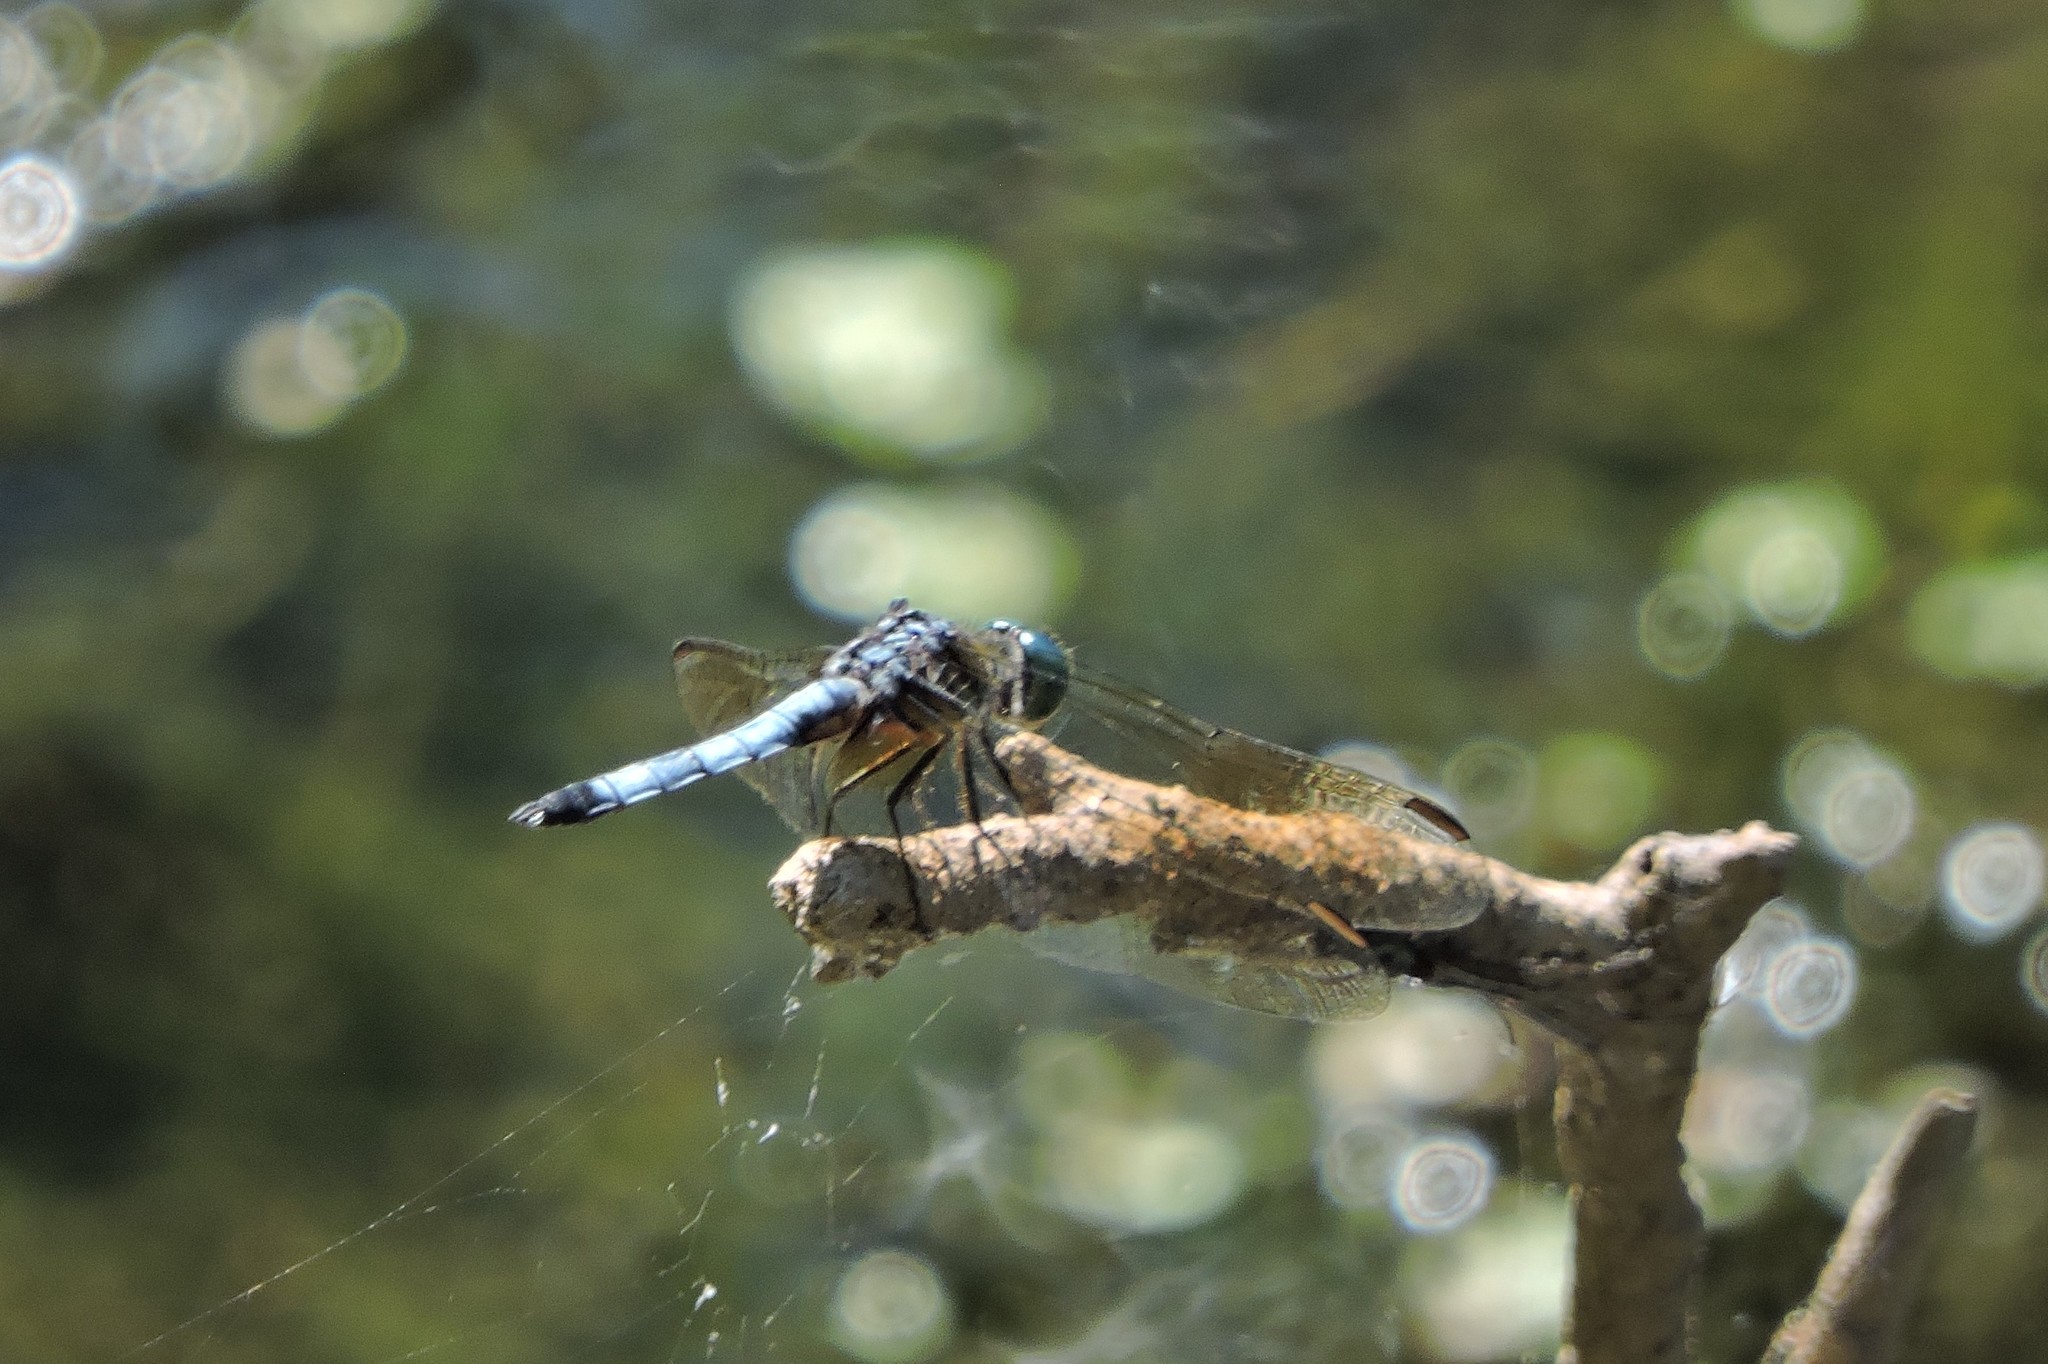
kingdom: Animalia
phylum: Arthropoda
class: Insecta
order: Odonata
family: Libellulidae
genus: Pachydiplax
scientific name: Pachydiplax longipennis
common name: Blue dasher
